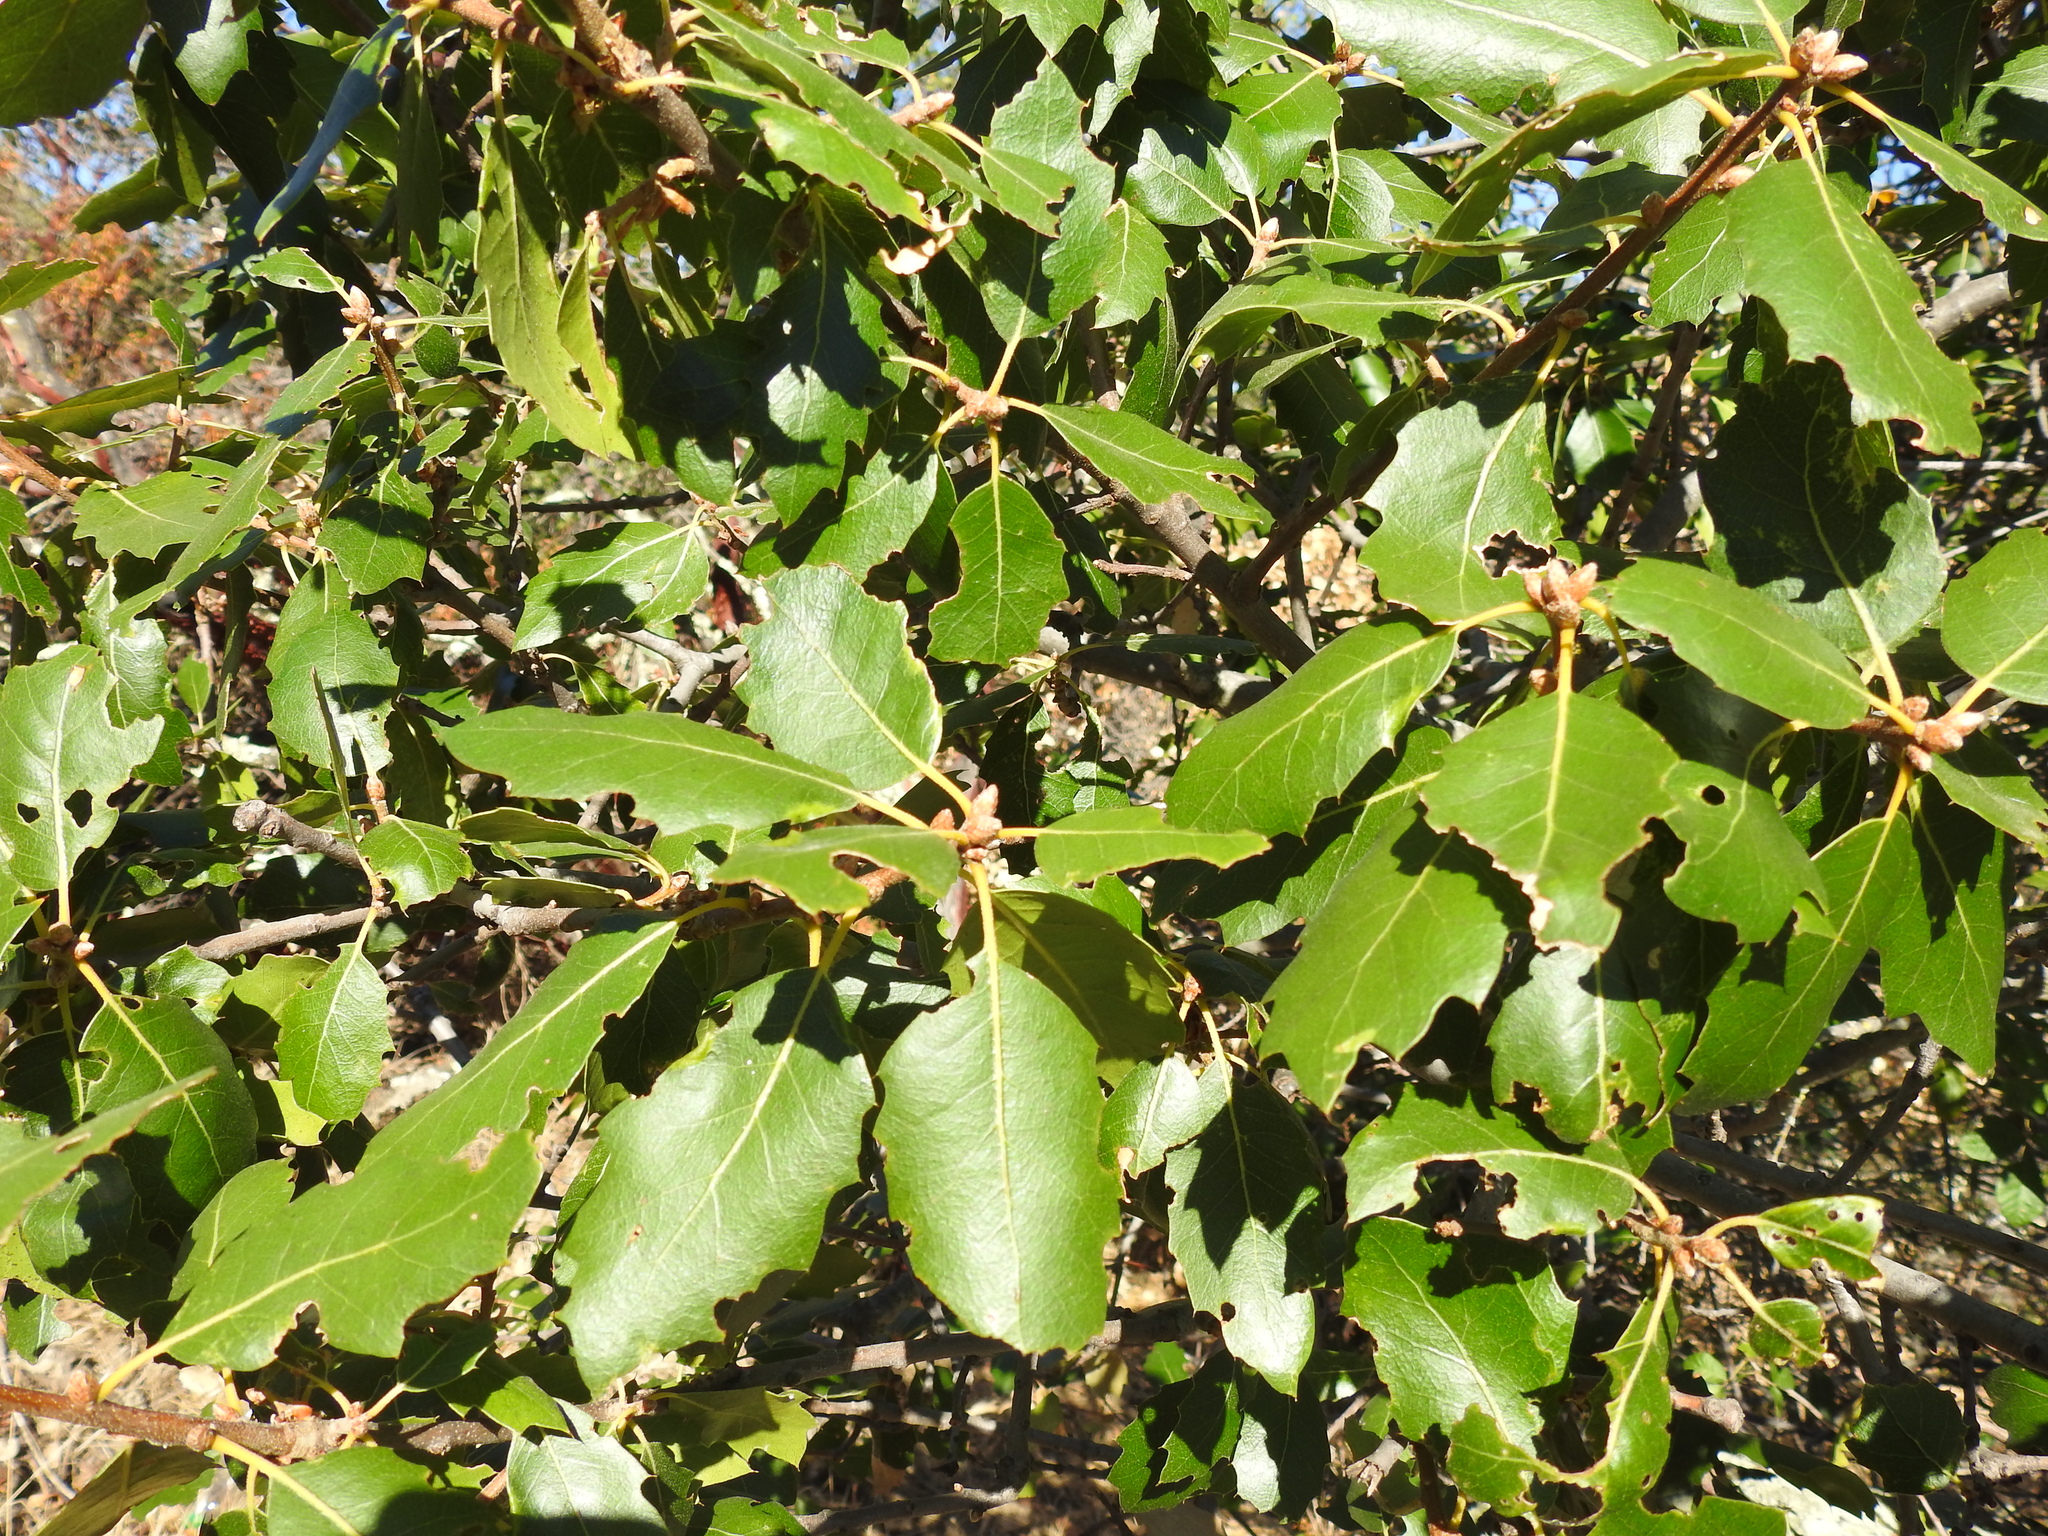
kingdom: Plantae
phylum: Tracheophyta
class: Magnoliopsida
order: Fagales
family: Fagaceae
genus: Quercus
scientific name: Quercus morehus
